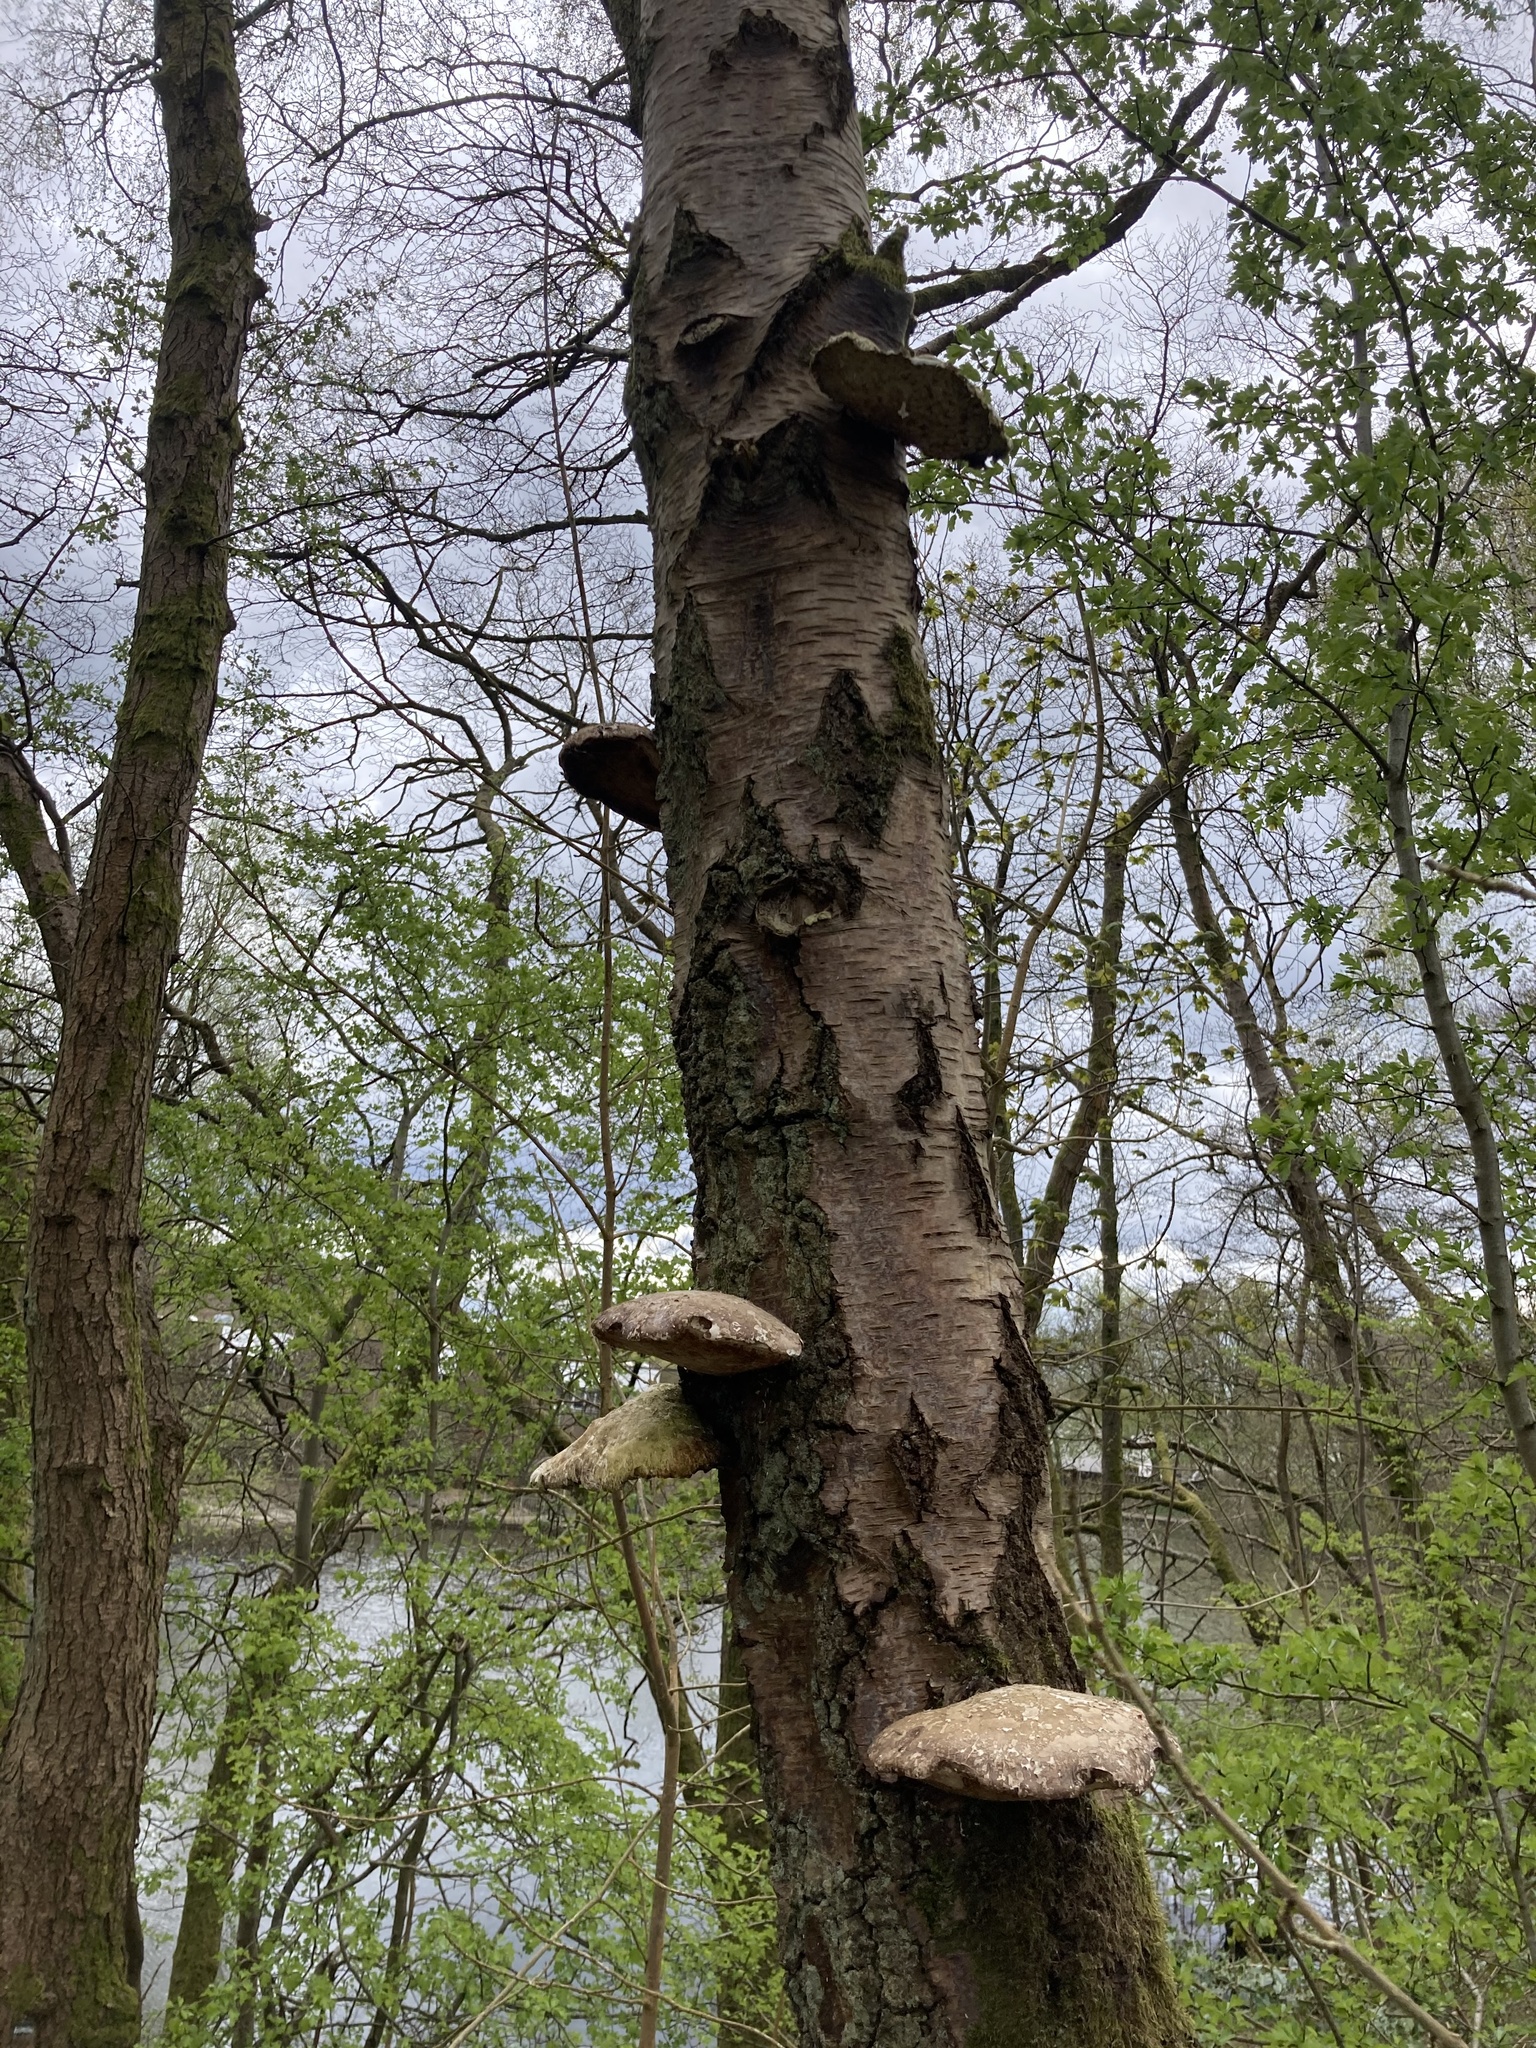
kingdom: Fungi
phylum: Basidiomycota
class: Agaricomycetes
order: Polyporales
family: Fomitopsidaceae
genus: Fomitopsis
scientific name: Fomitopsis betulina
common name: Birch polypore
